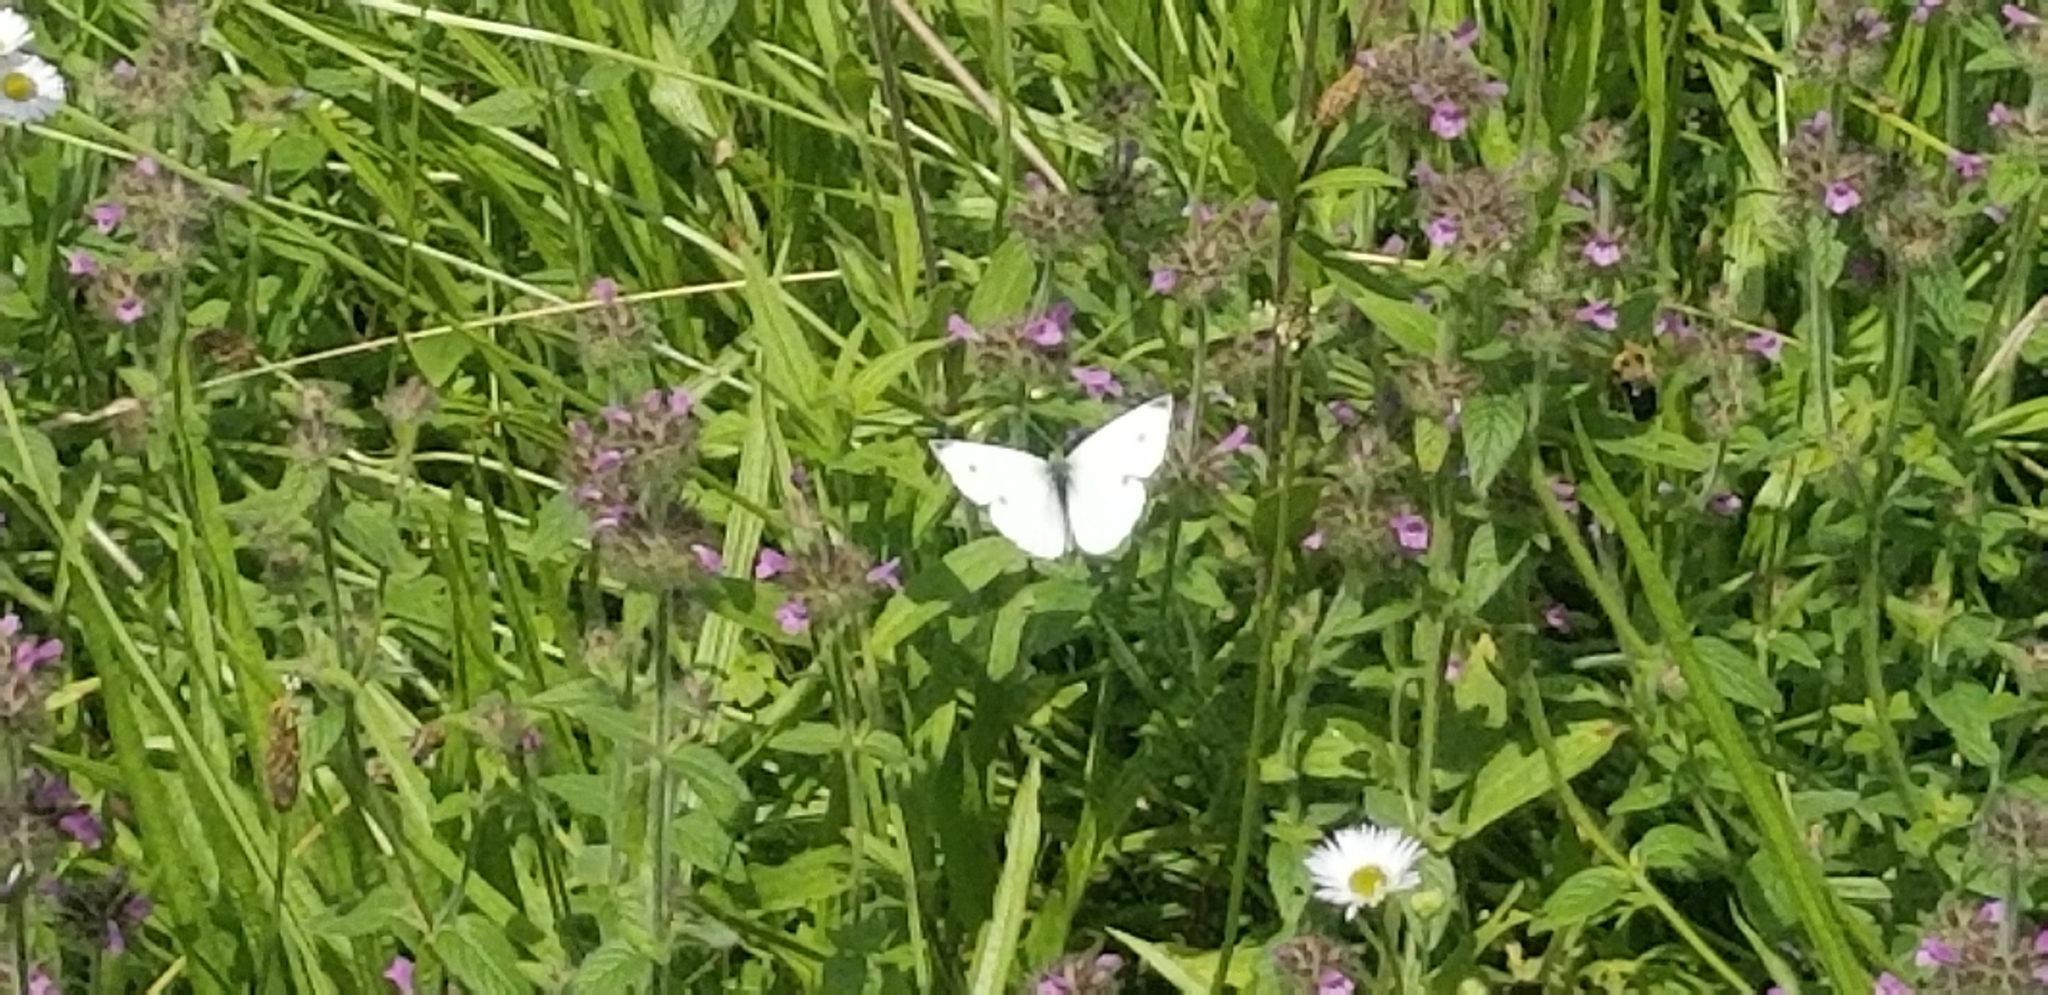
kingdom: Animalia
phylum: Arthropoda
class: Insecta
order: Lepidoptera
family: Pieridae
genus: Pieris
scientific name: Pieris rapae
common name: Small white
